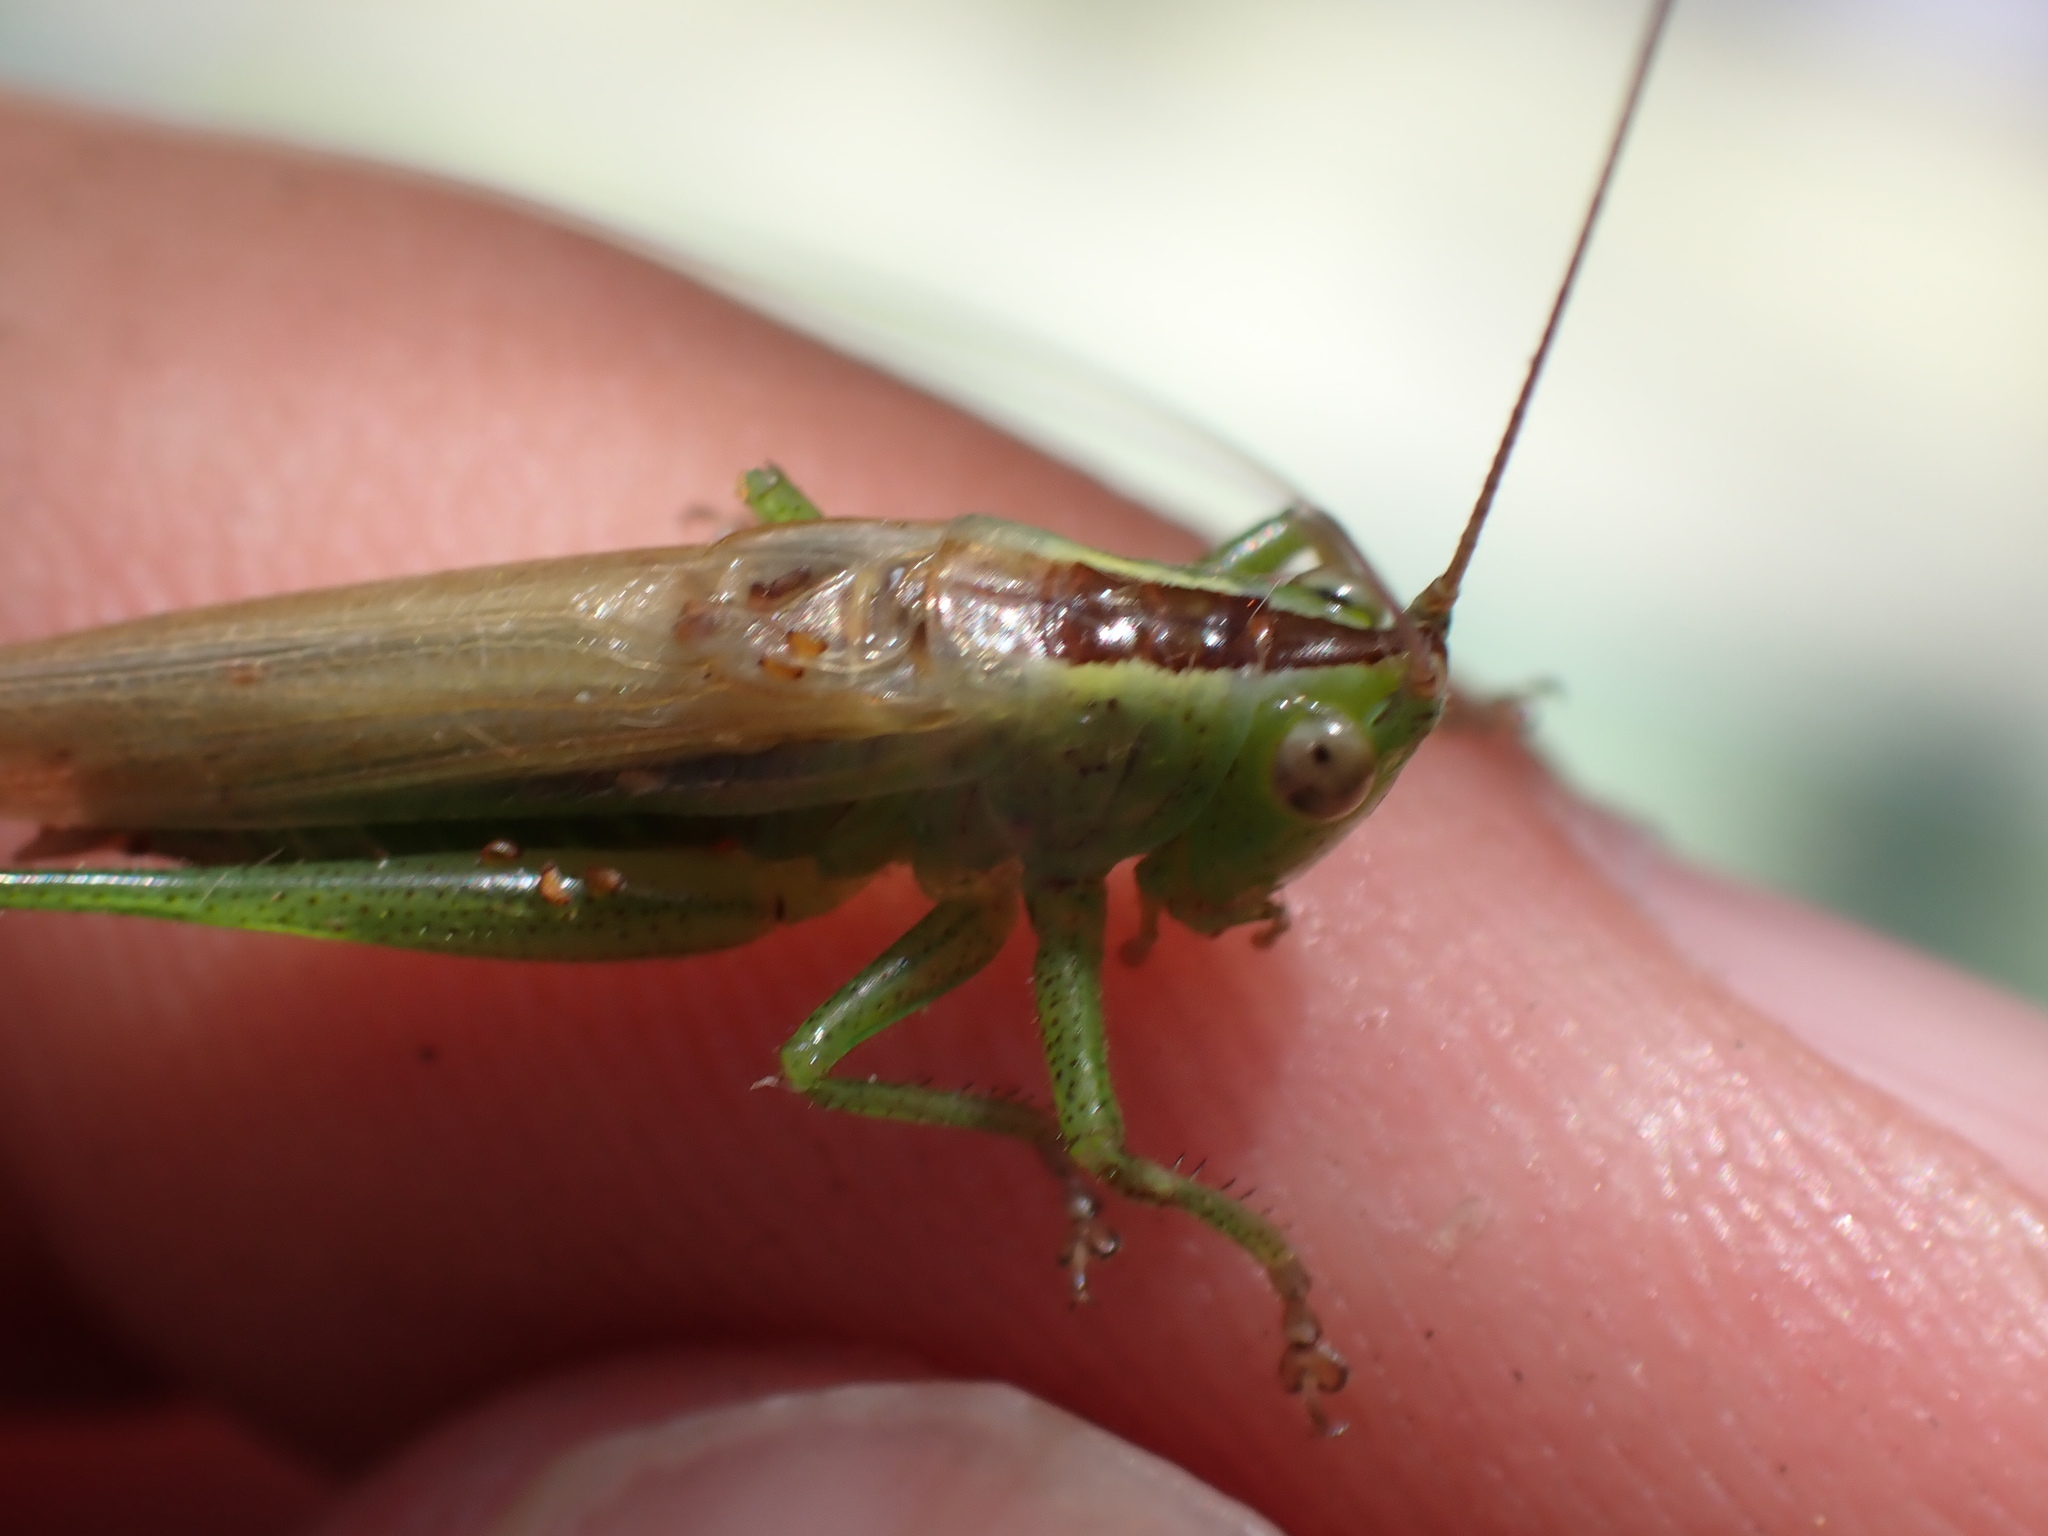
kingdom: Animalia
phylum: Arthropoda
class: Insecta
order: Orthoptera
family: Tettigoniidae
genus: Conocephalus
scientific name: Conocephalus fuscus
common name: Long-winged conehead
